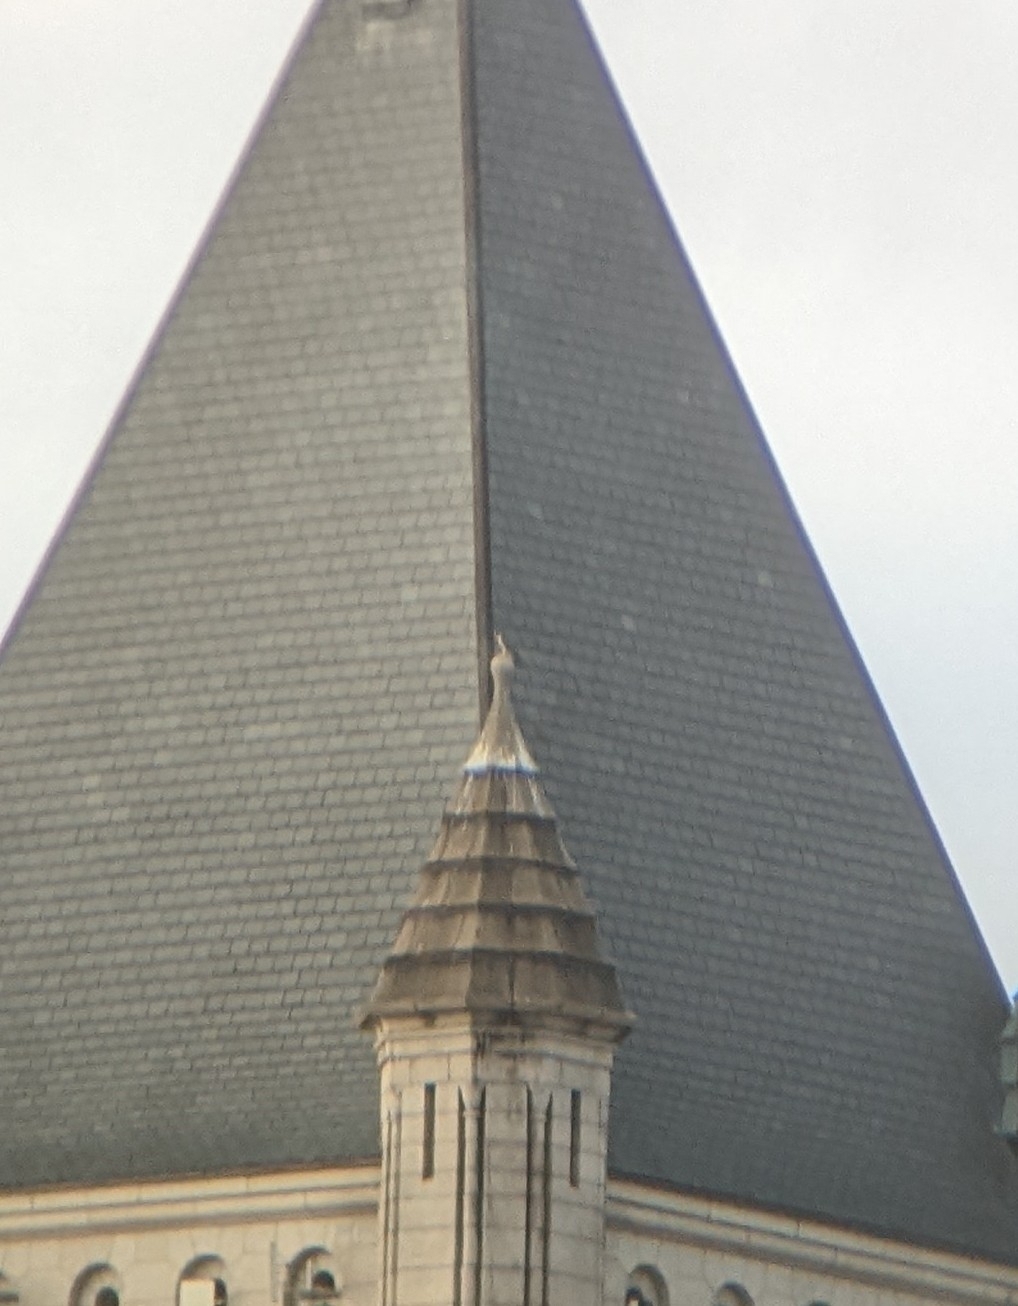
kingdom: Animalia
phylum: Chordata
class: Aves
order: Falconiformes
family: Falconidae
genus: Falco
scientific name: Falco peregrinus
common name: Peregrine falcon
